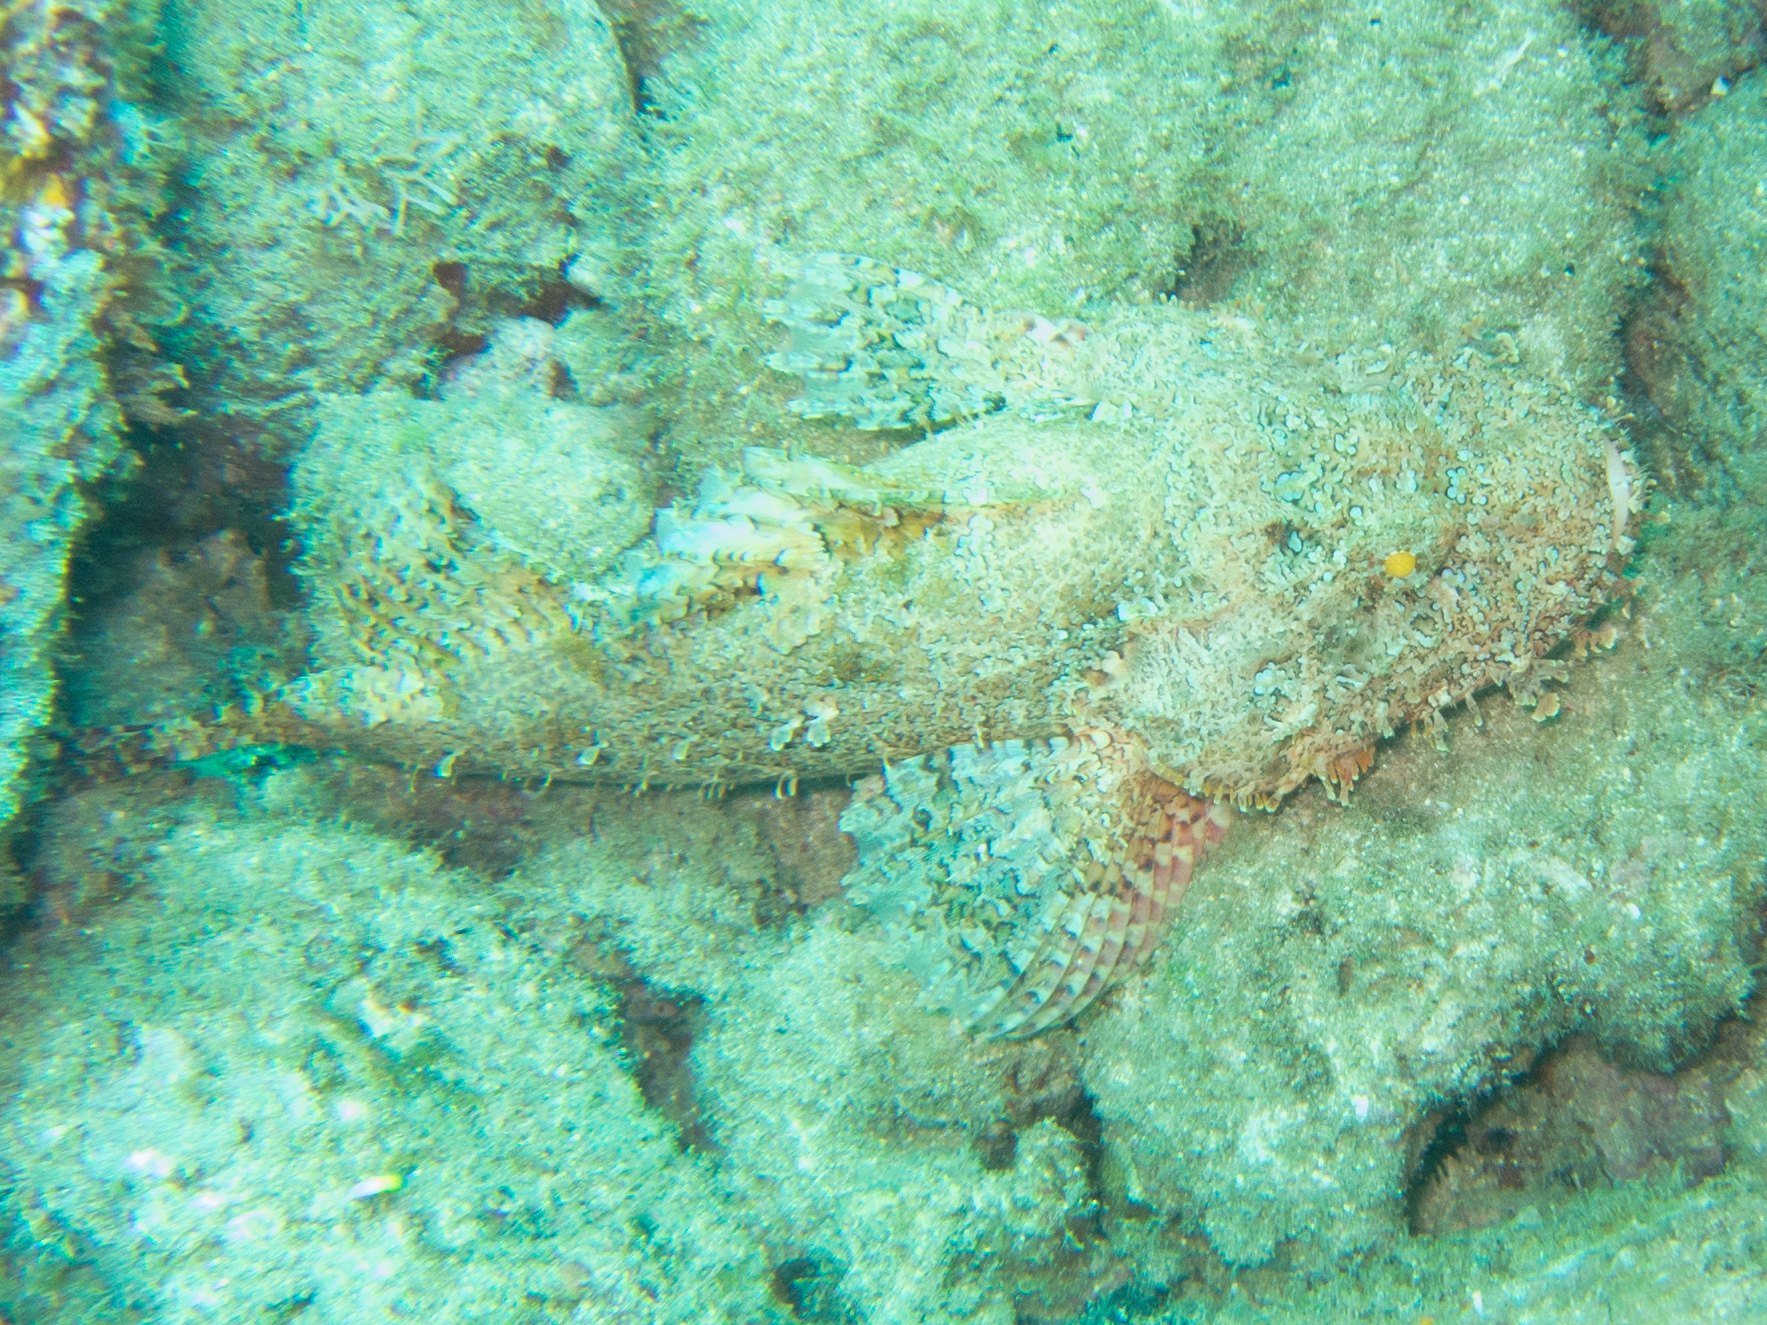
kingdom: Animalia
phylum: Chordata
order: Scorpaeniformes
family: Scorpaenidae
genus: Scorpaenopsis
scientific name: Scorpaenopsis cacopsis
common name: Jenkin's scorpionfish
